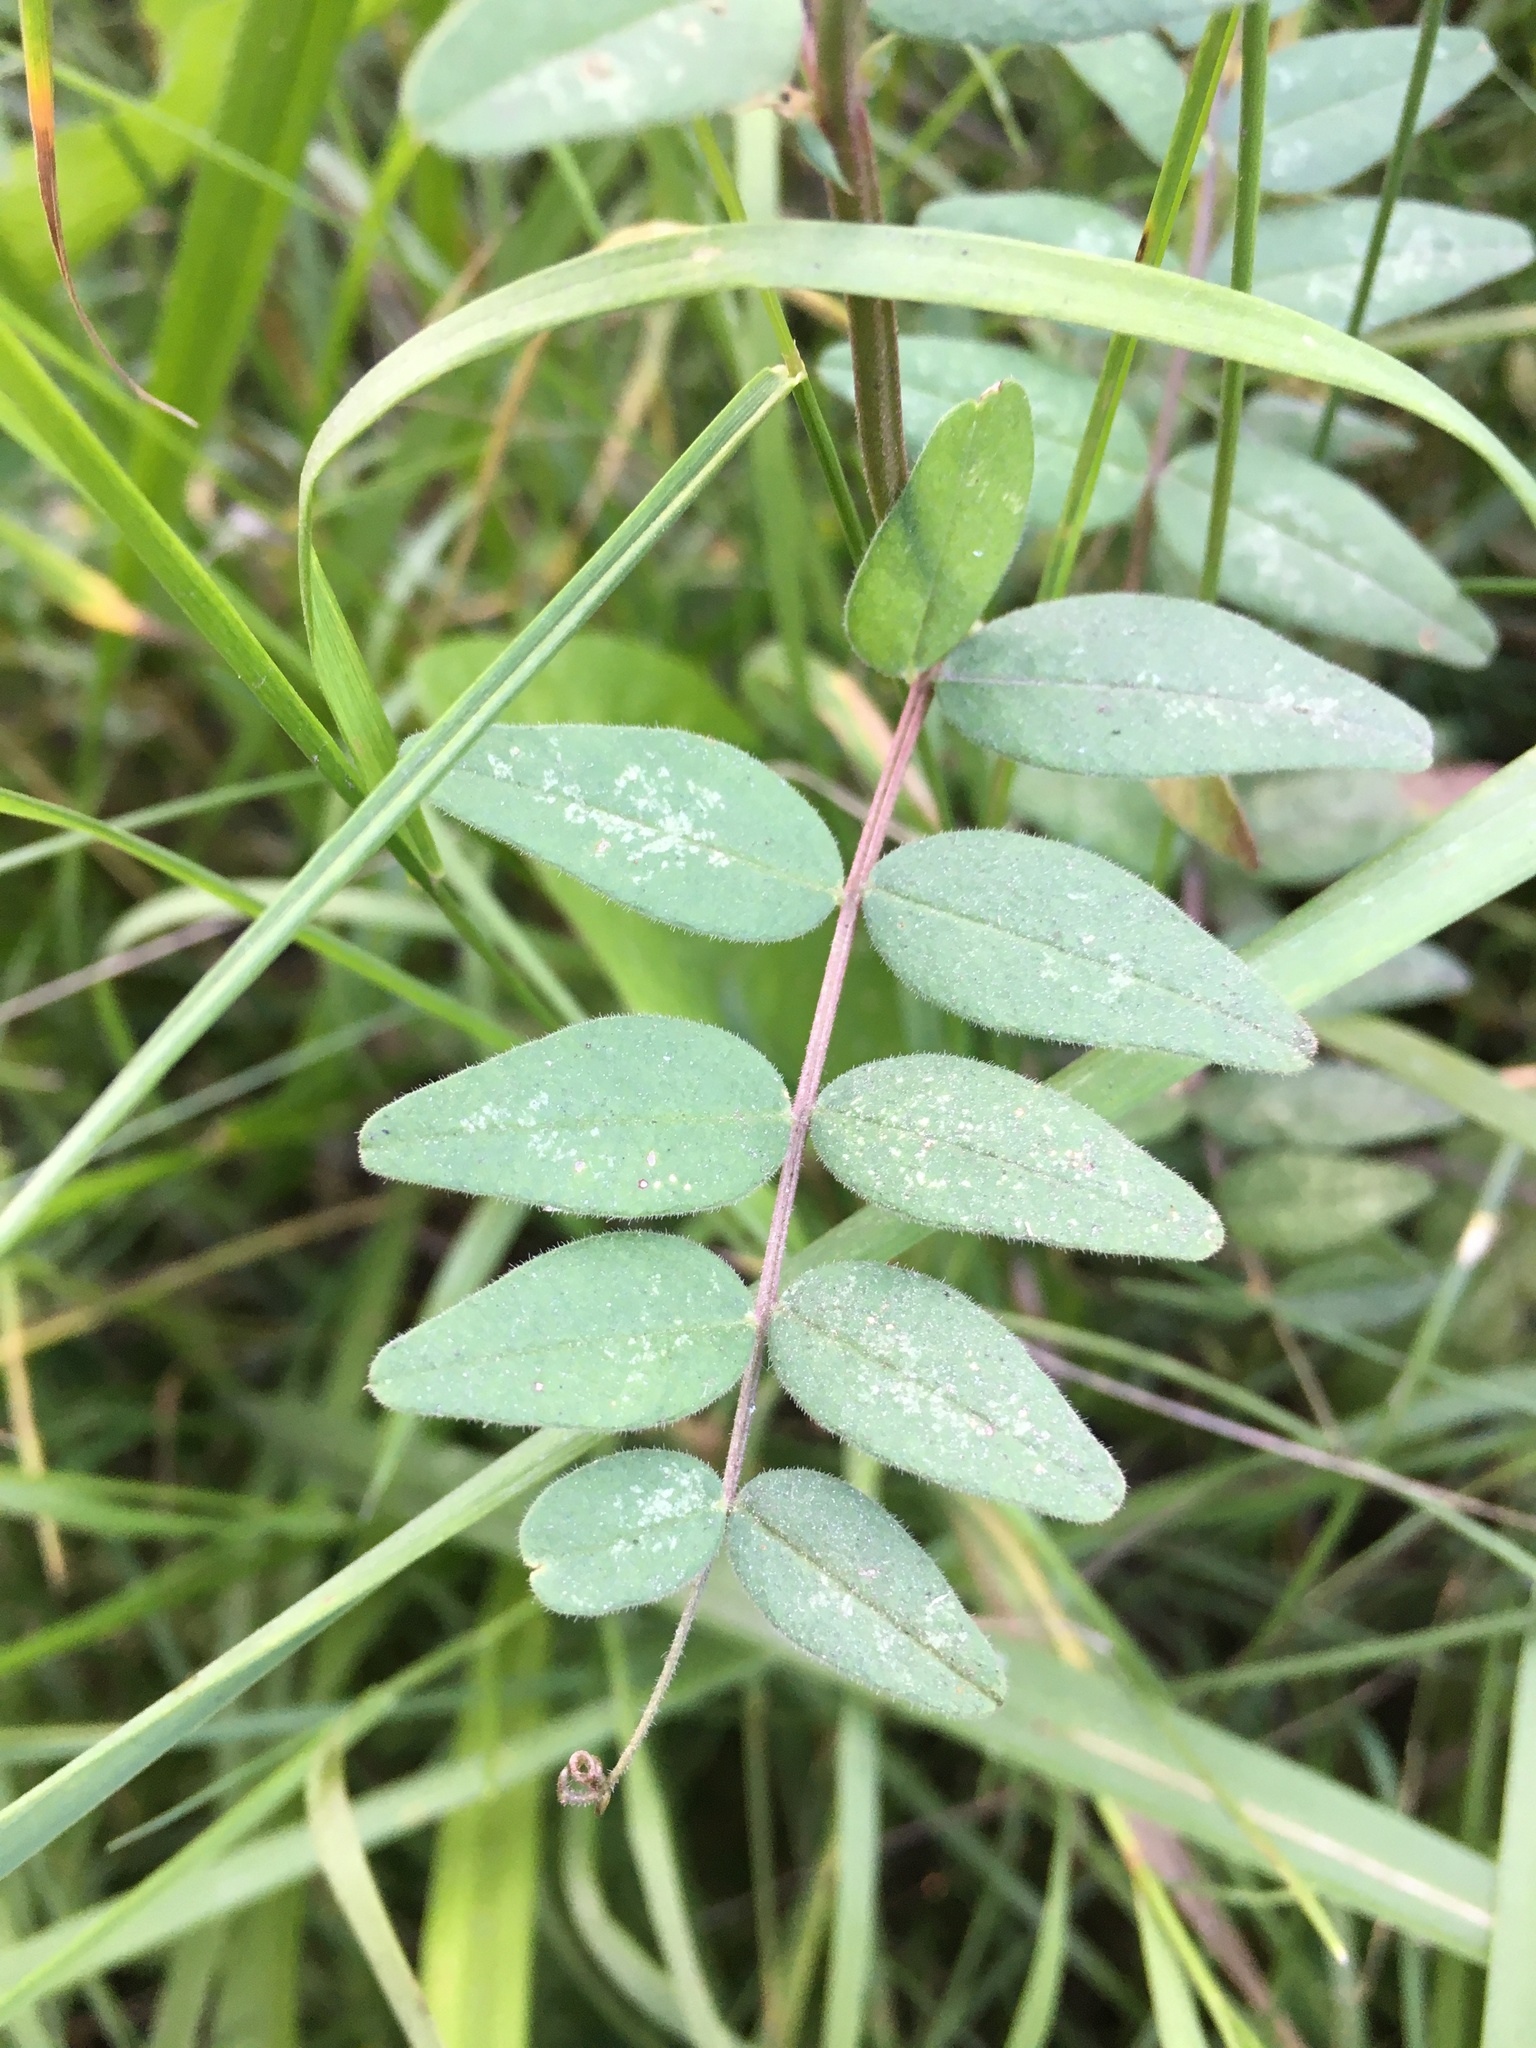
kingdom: Plantae
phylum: Tracheophyta
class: Magnoliopsida
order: Fabales
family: Fabaceae
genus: Vicia
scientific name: Vicia sepium
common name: Bush vetch
